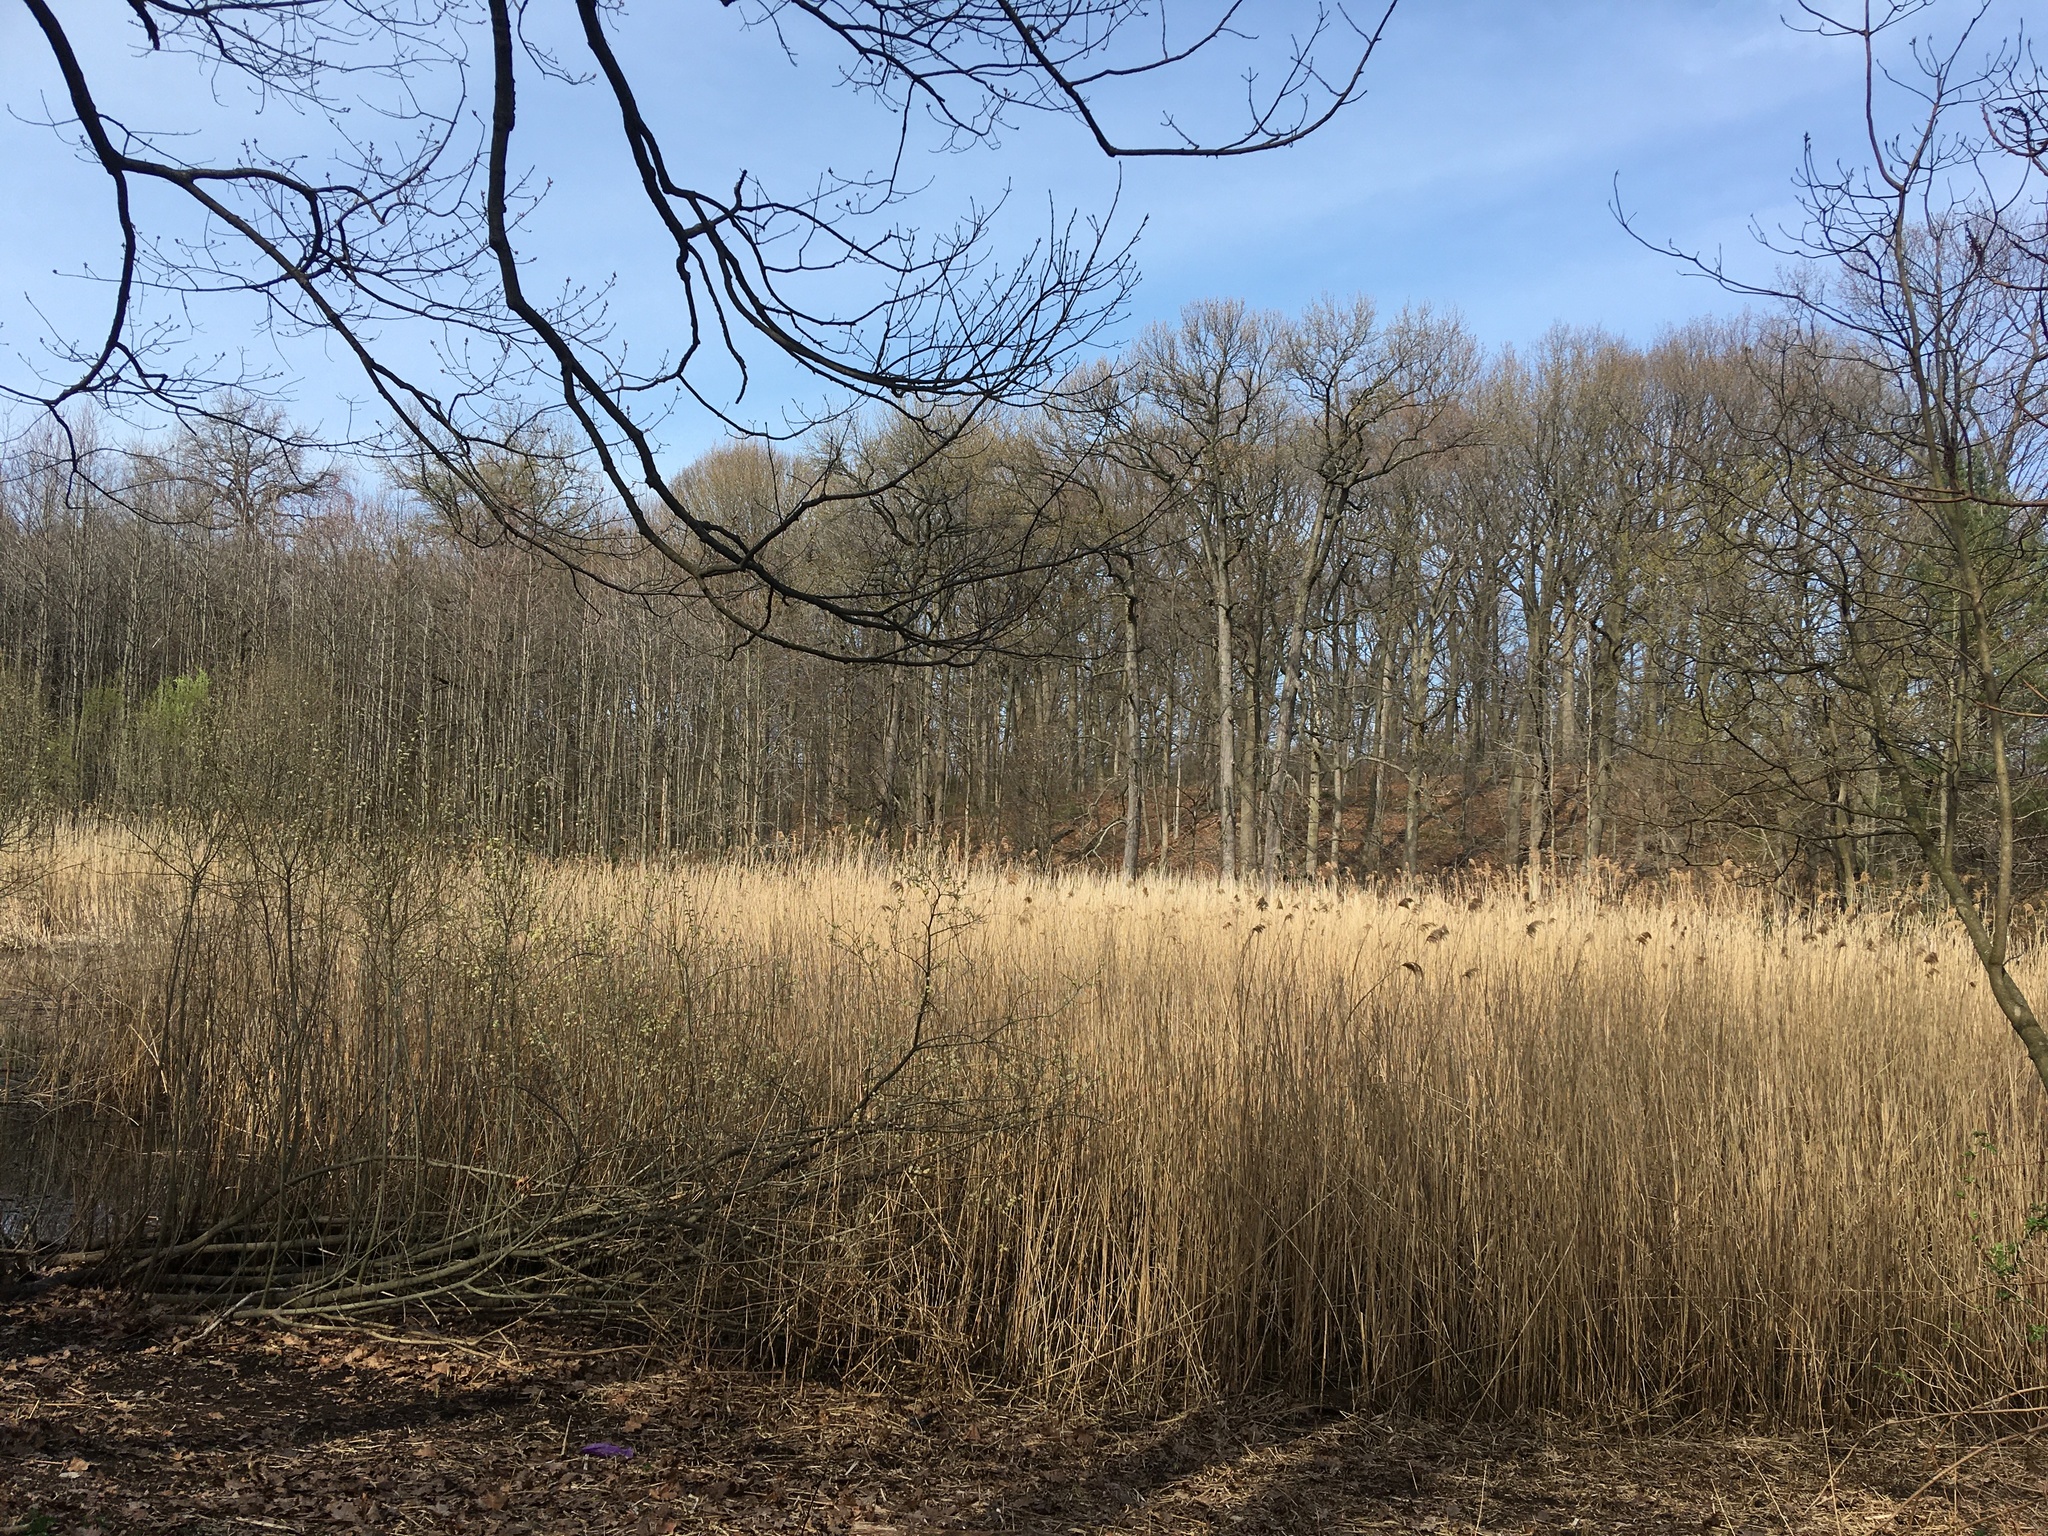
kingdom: Plantae
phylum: Tracheophyta
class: Liliopsida
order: Poales
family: Poaceae
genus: Phragmites
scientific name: Phragmites australis
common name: Common reed
